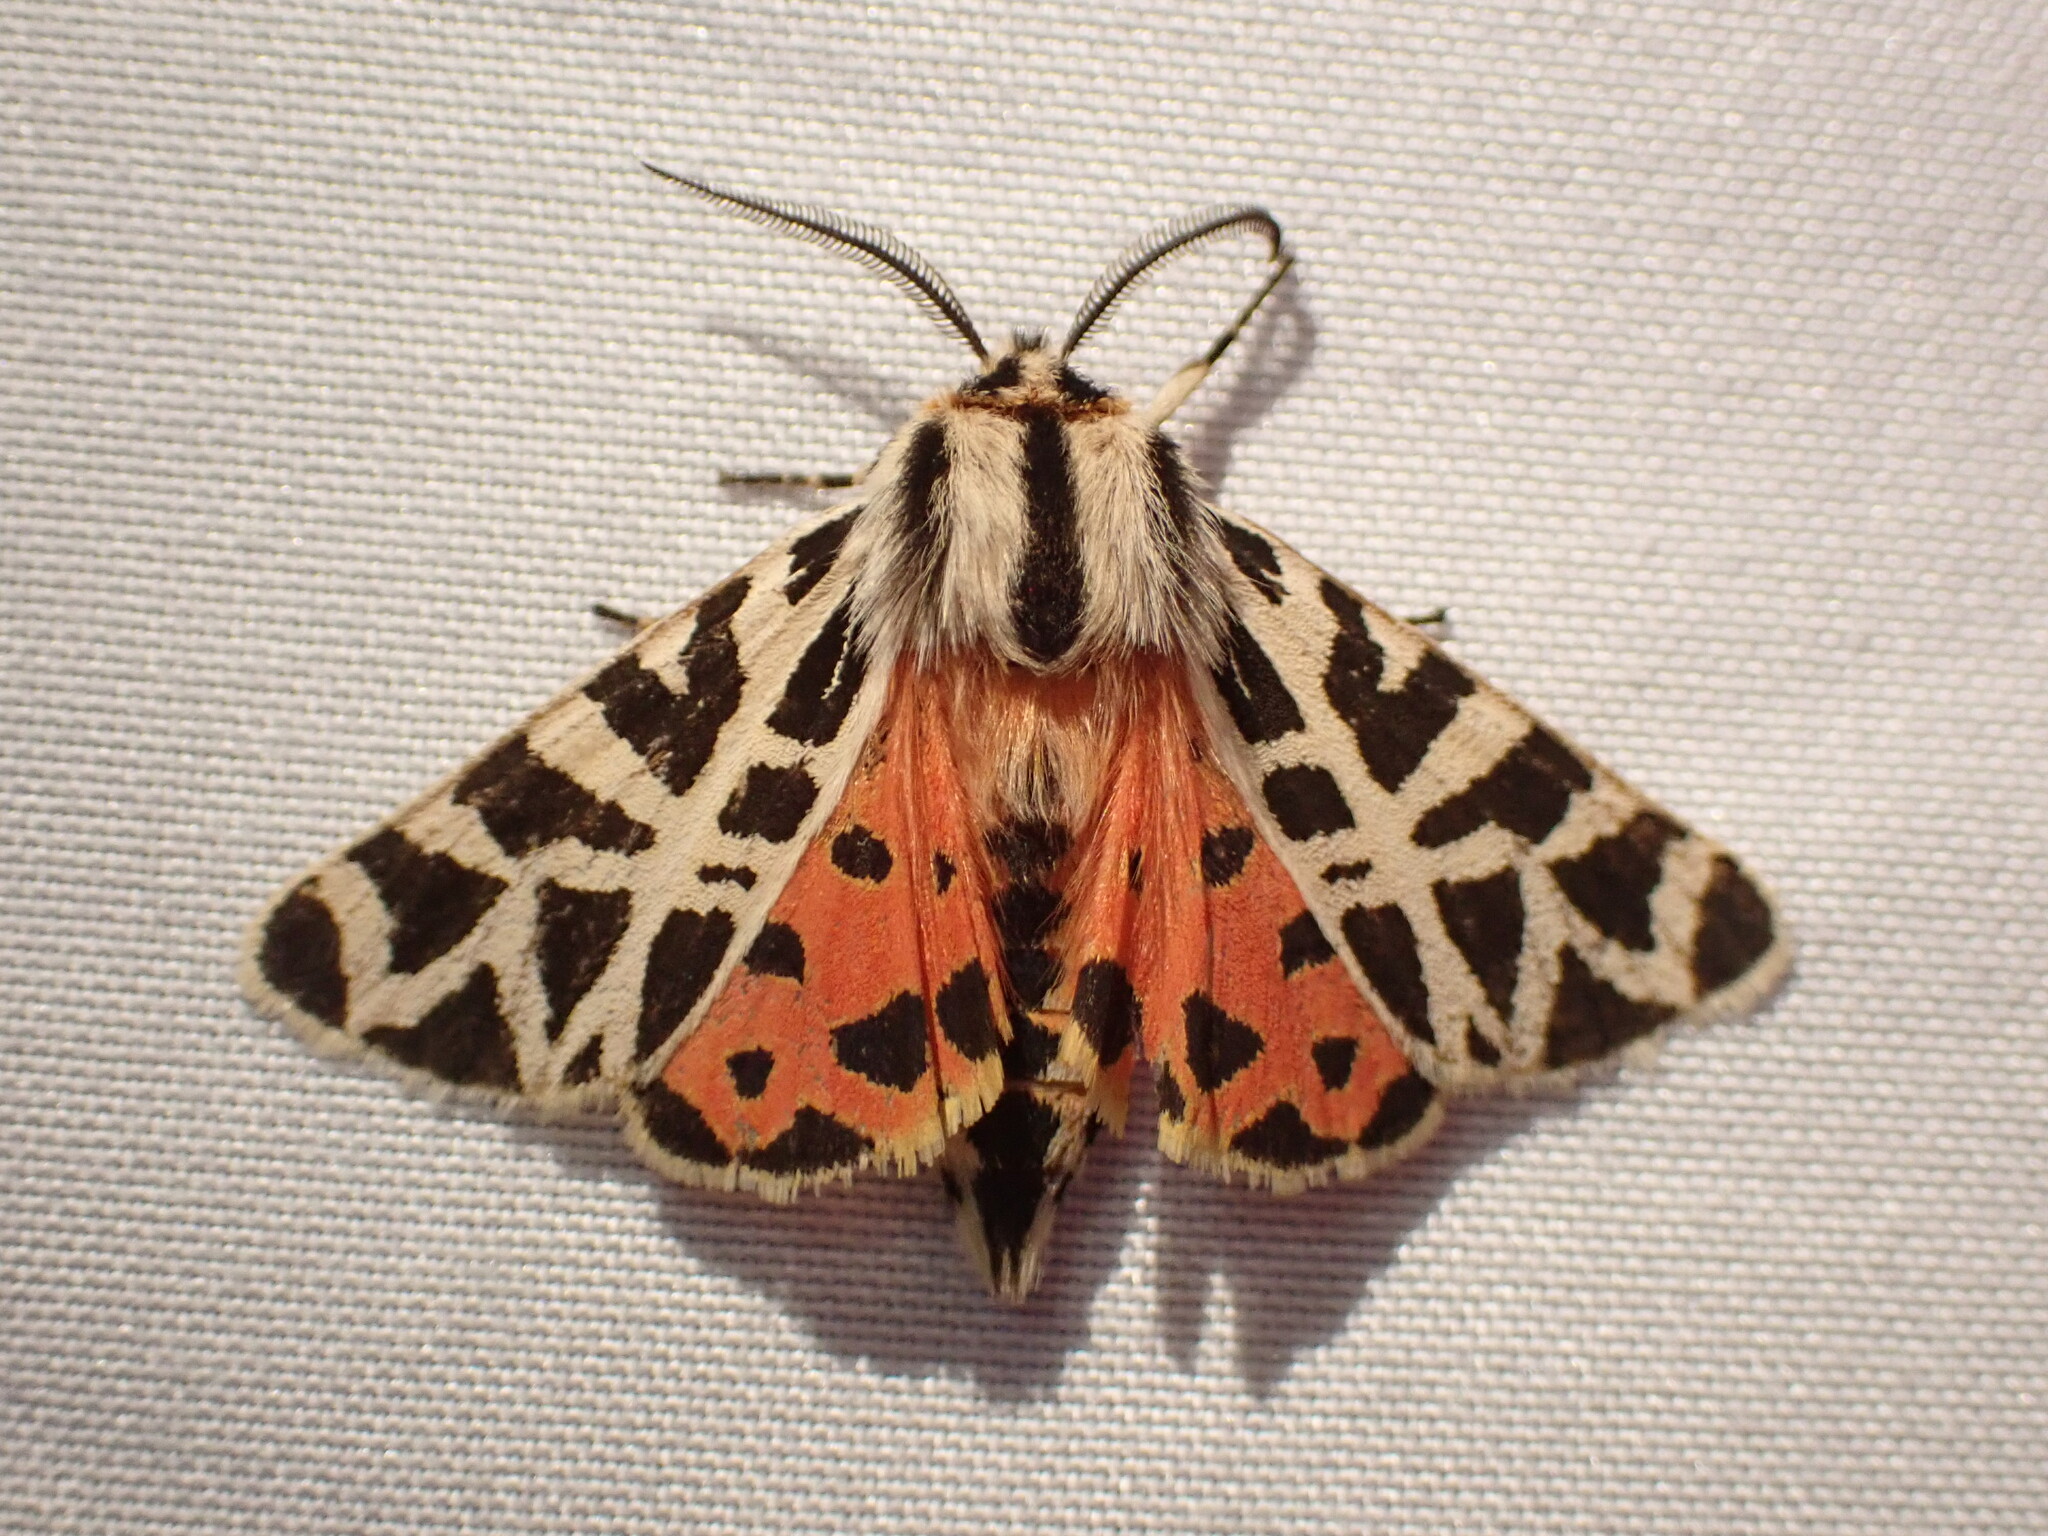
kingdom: Animalia
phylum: Arthropoda
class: Insecta
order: Lepidoptera
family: Erebidae
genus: Apantesis
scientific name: Apantesis
